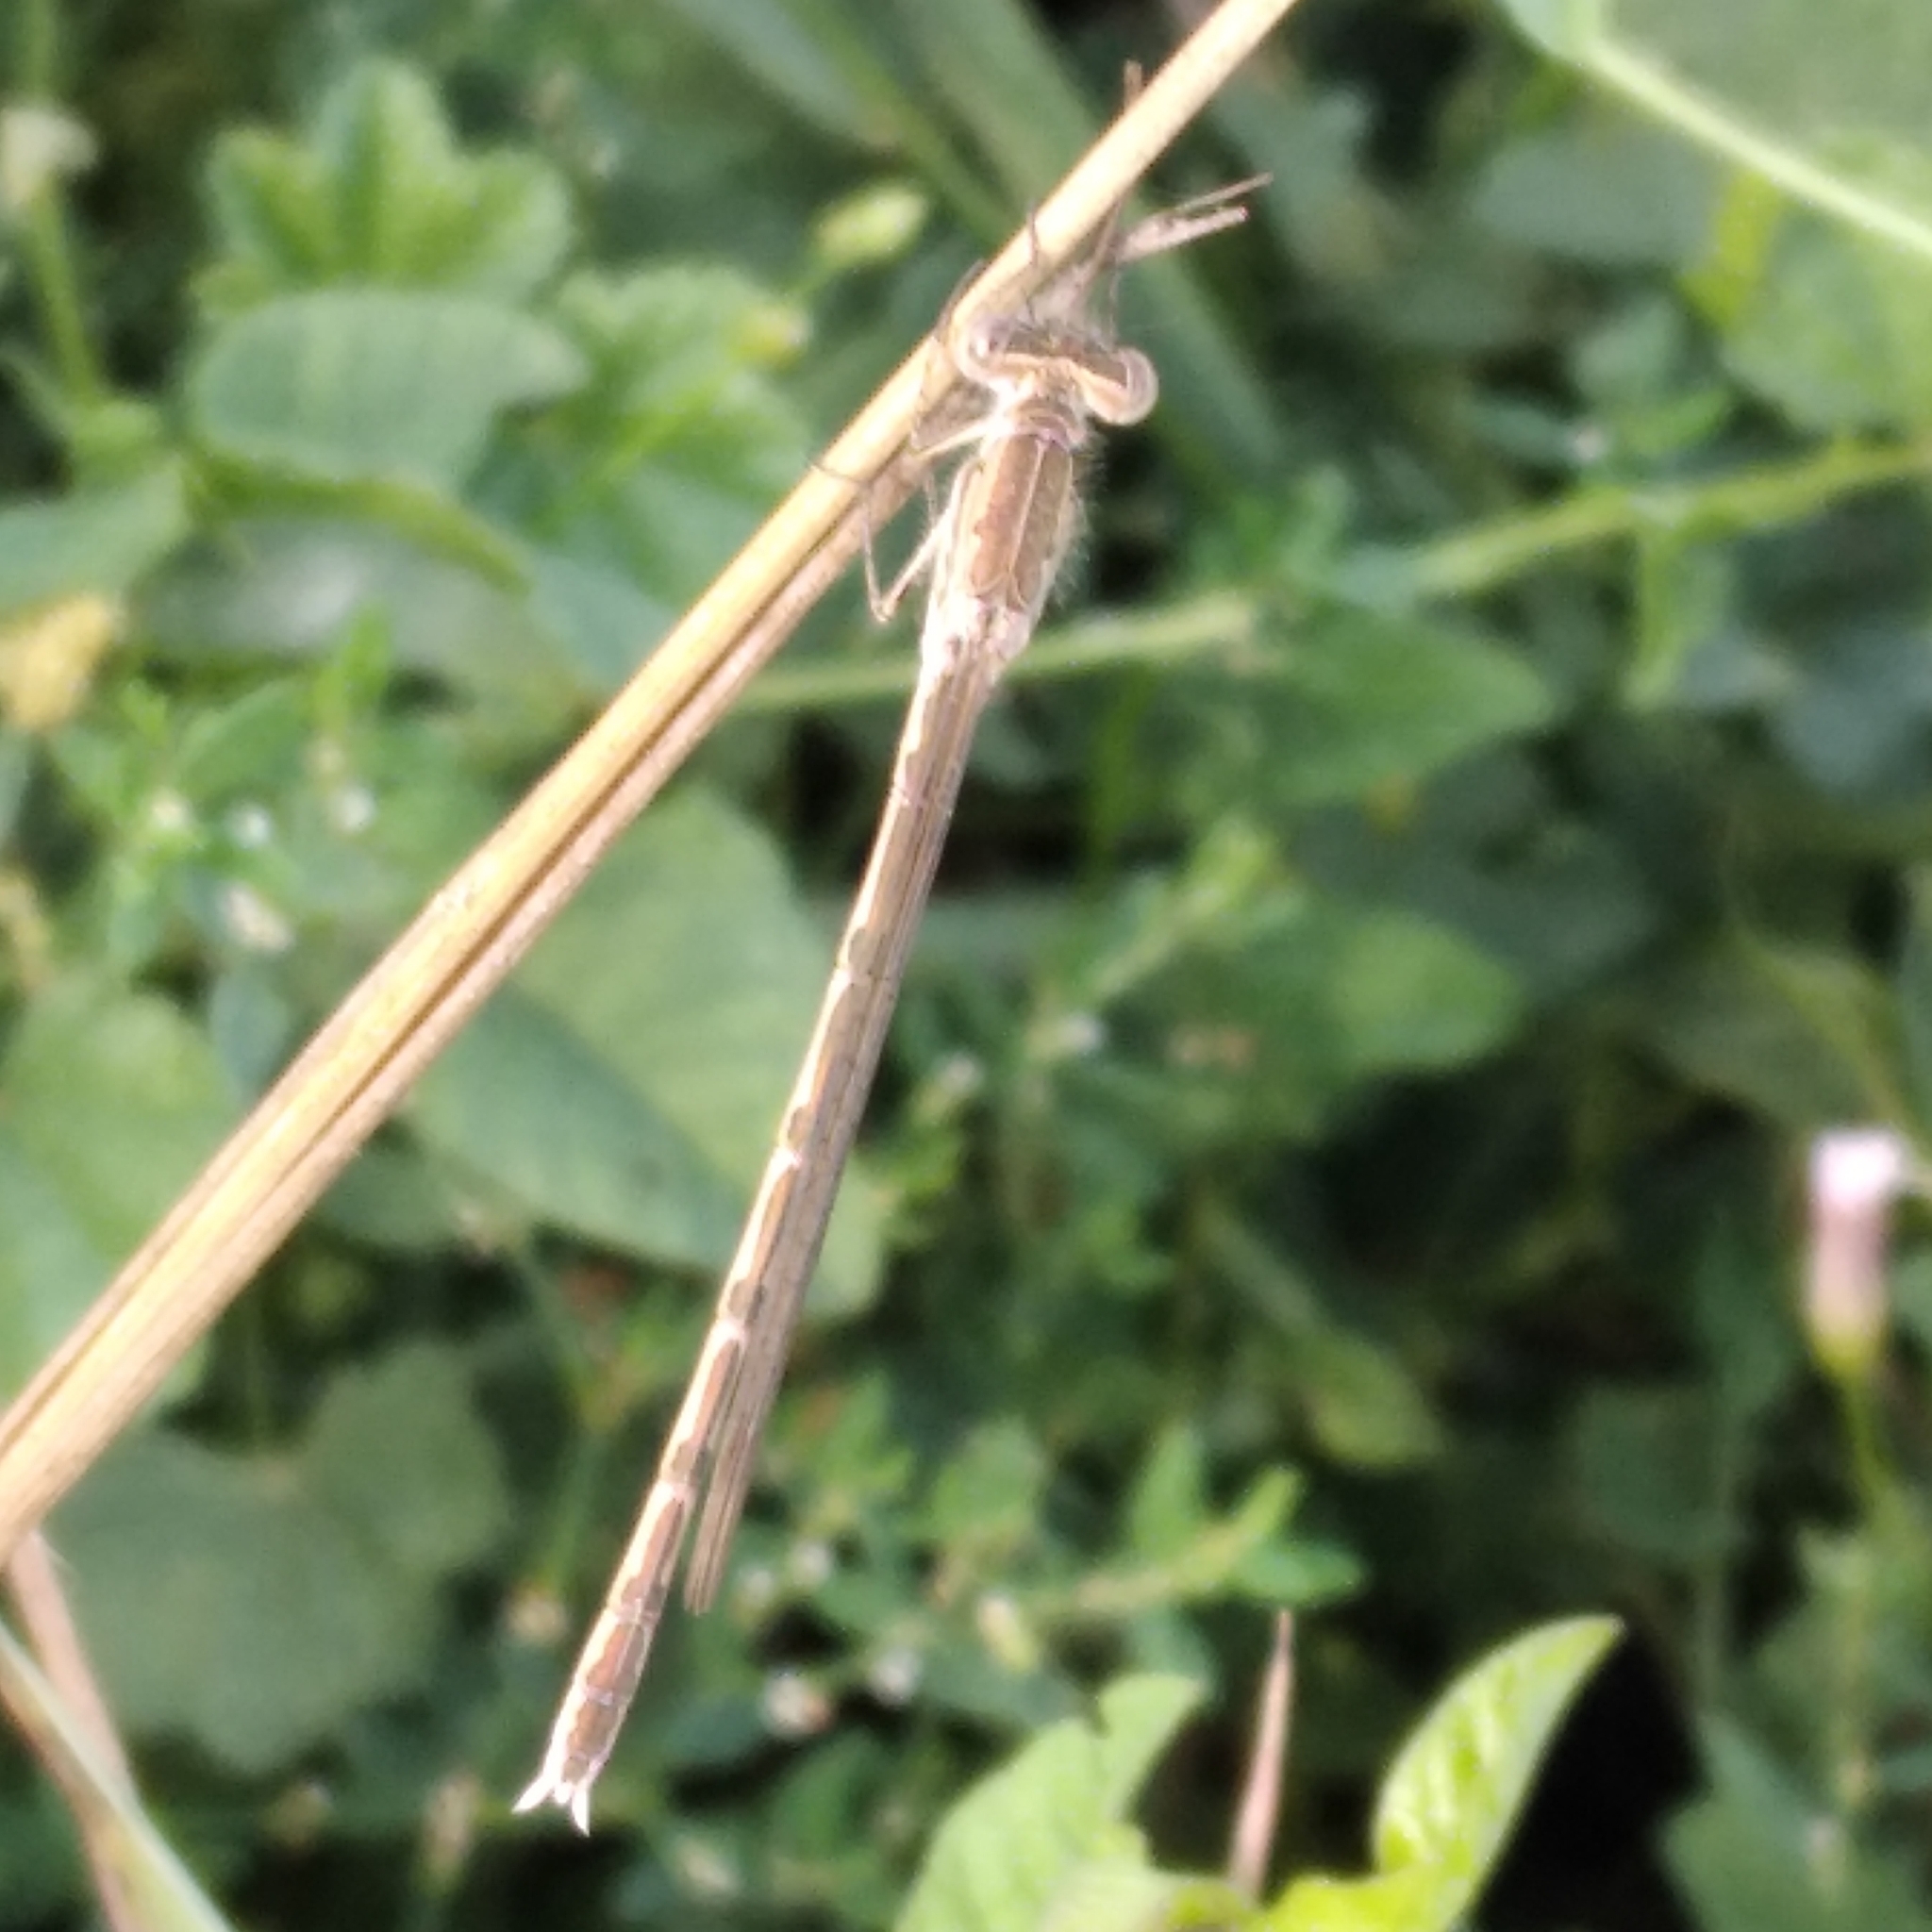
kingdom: Animalia
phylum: Arthropoda
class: Insecta
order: Odonata
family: Lestidae
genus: Sympecma
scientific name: Sympecma paedisca
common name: Siberian winter damsel
